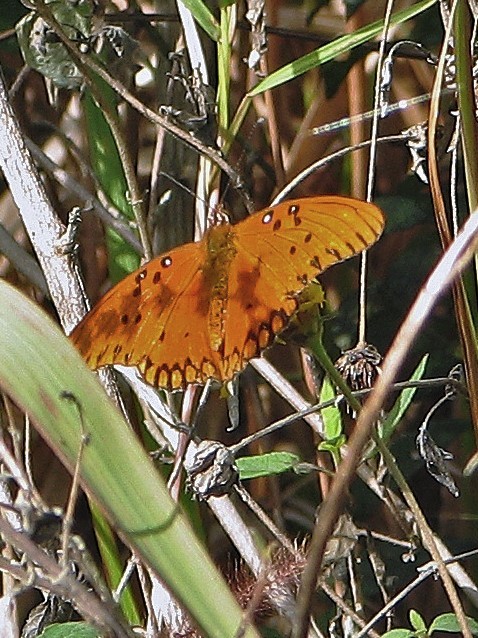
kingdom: Animalia
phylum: Arthropoda
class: Insecta
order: Lepidoptera
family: Nymphalidae
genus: Dione
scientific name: Dione vanillae
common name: Gulf fritillary
